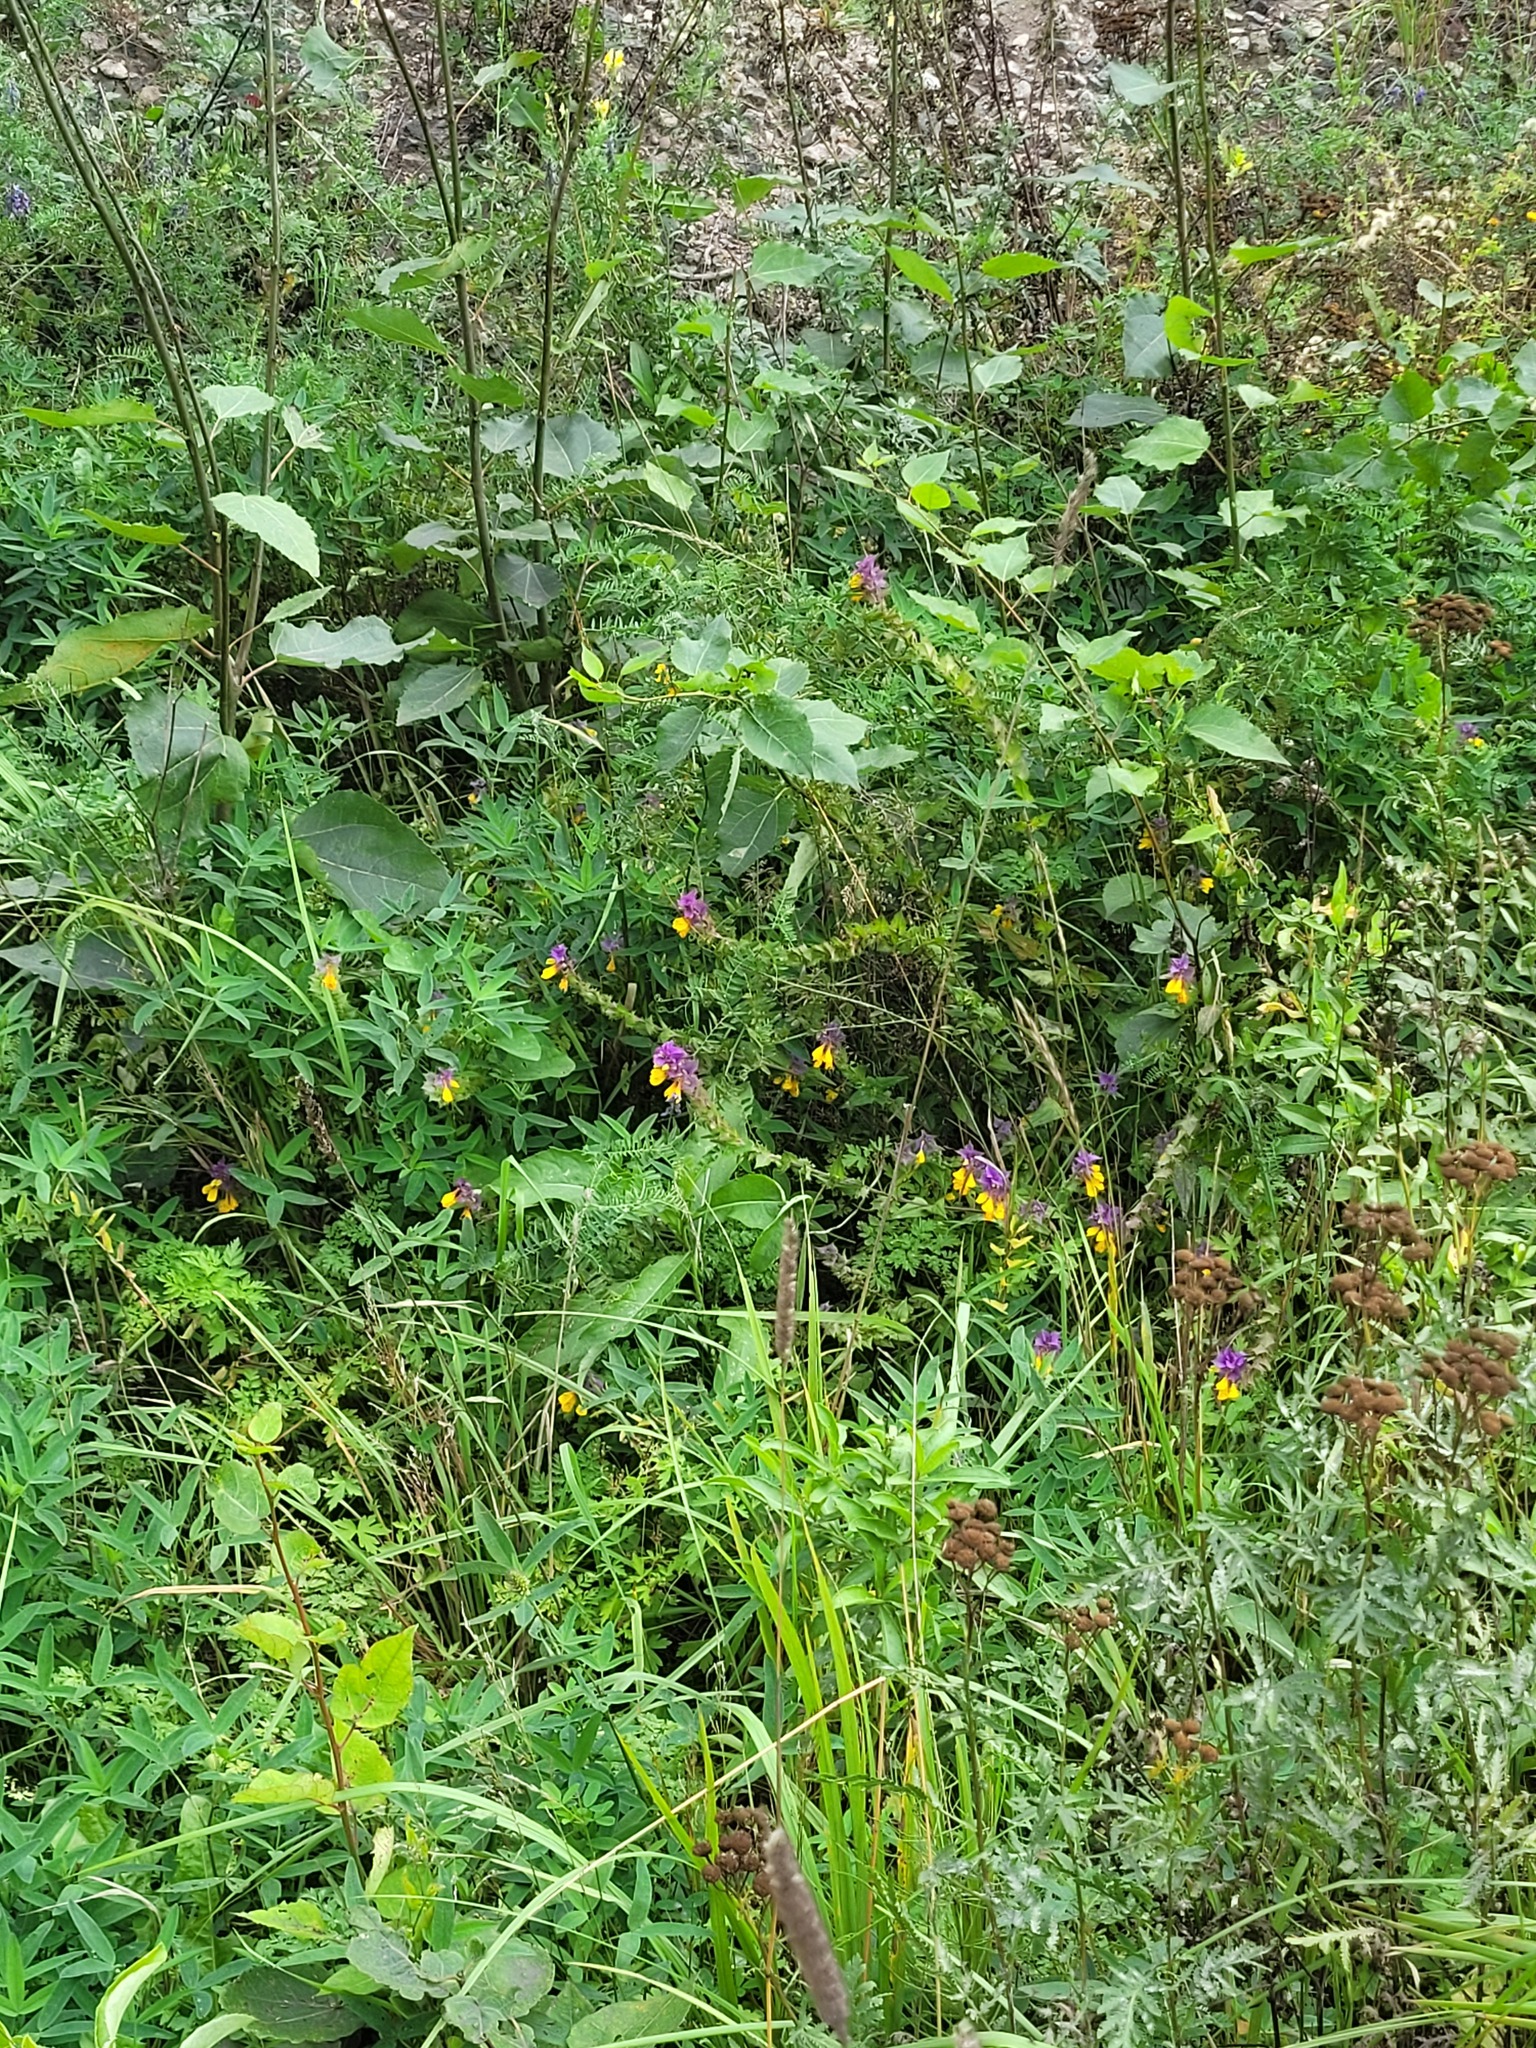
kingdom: Plantae
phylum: Tracheophyta
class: Magnoliopsida
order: Lamiales
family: Orobanchaceae
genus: Melampyrum
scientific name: Melampyrum nemorosum
